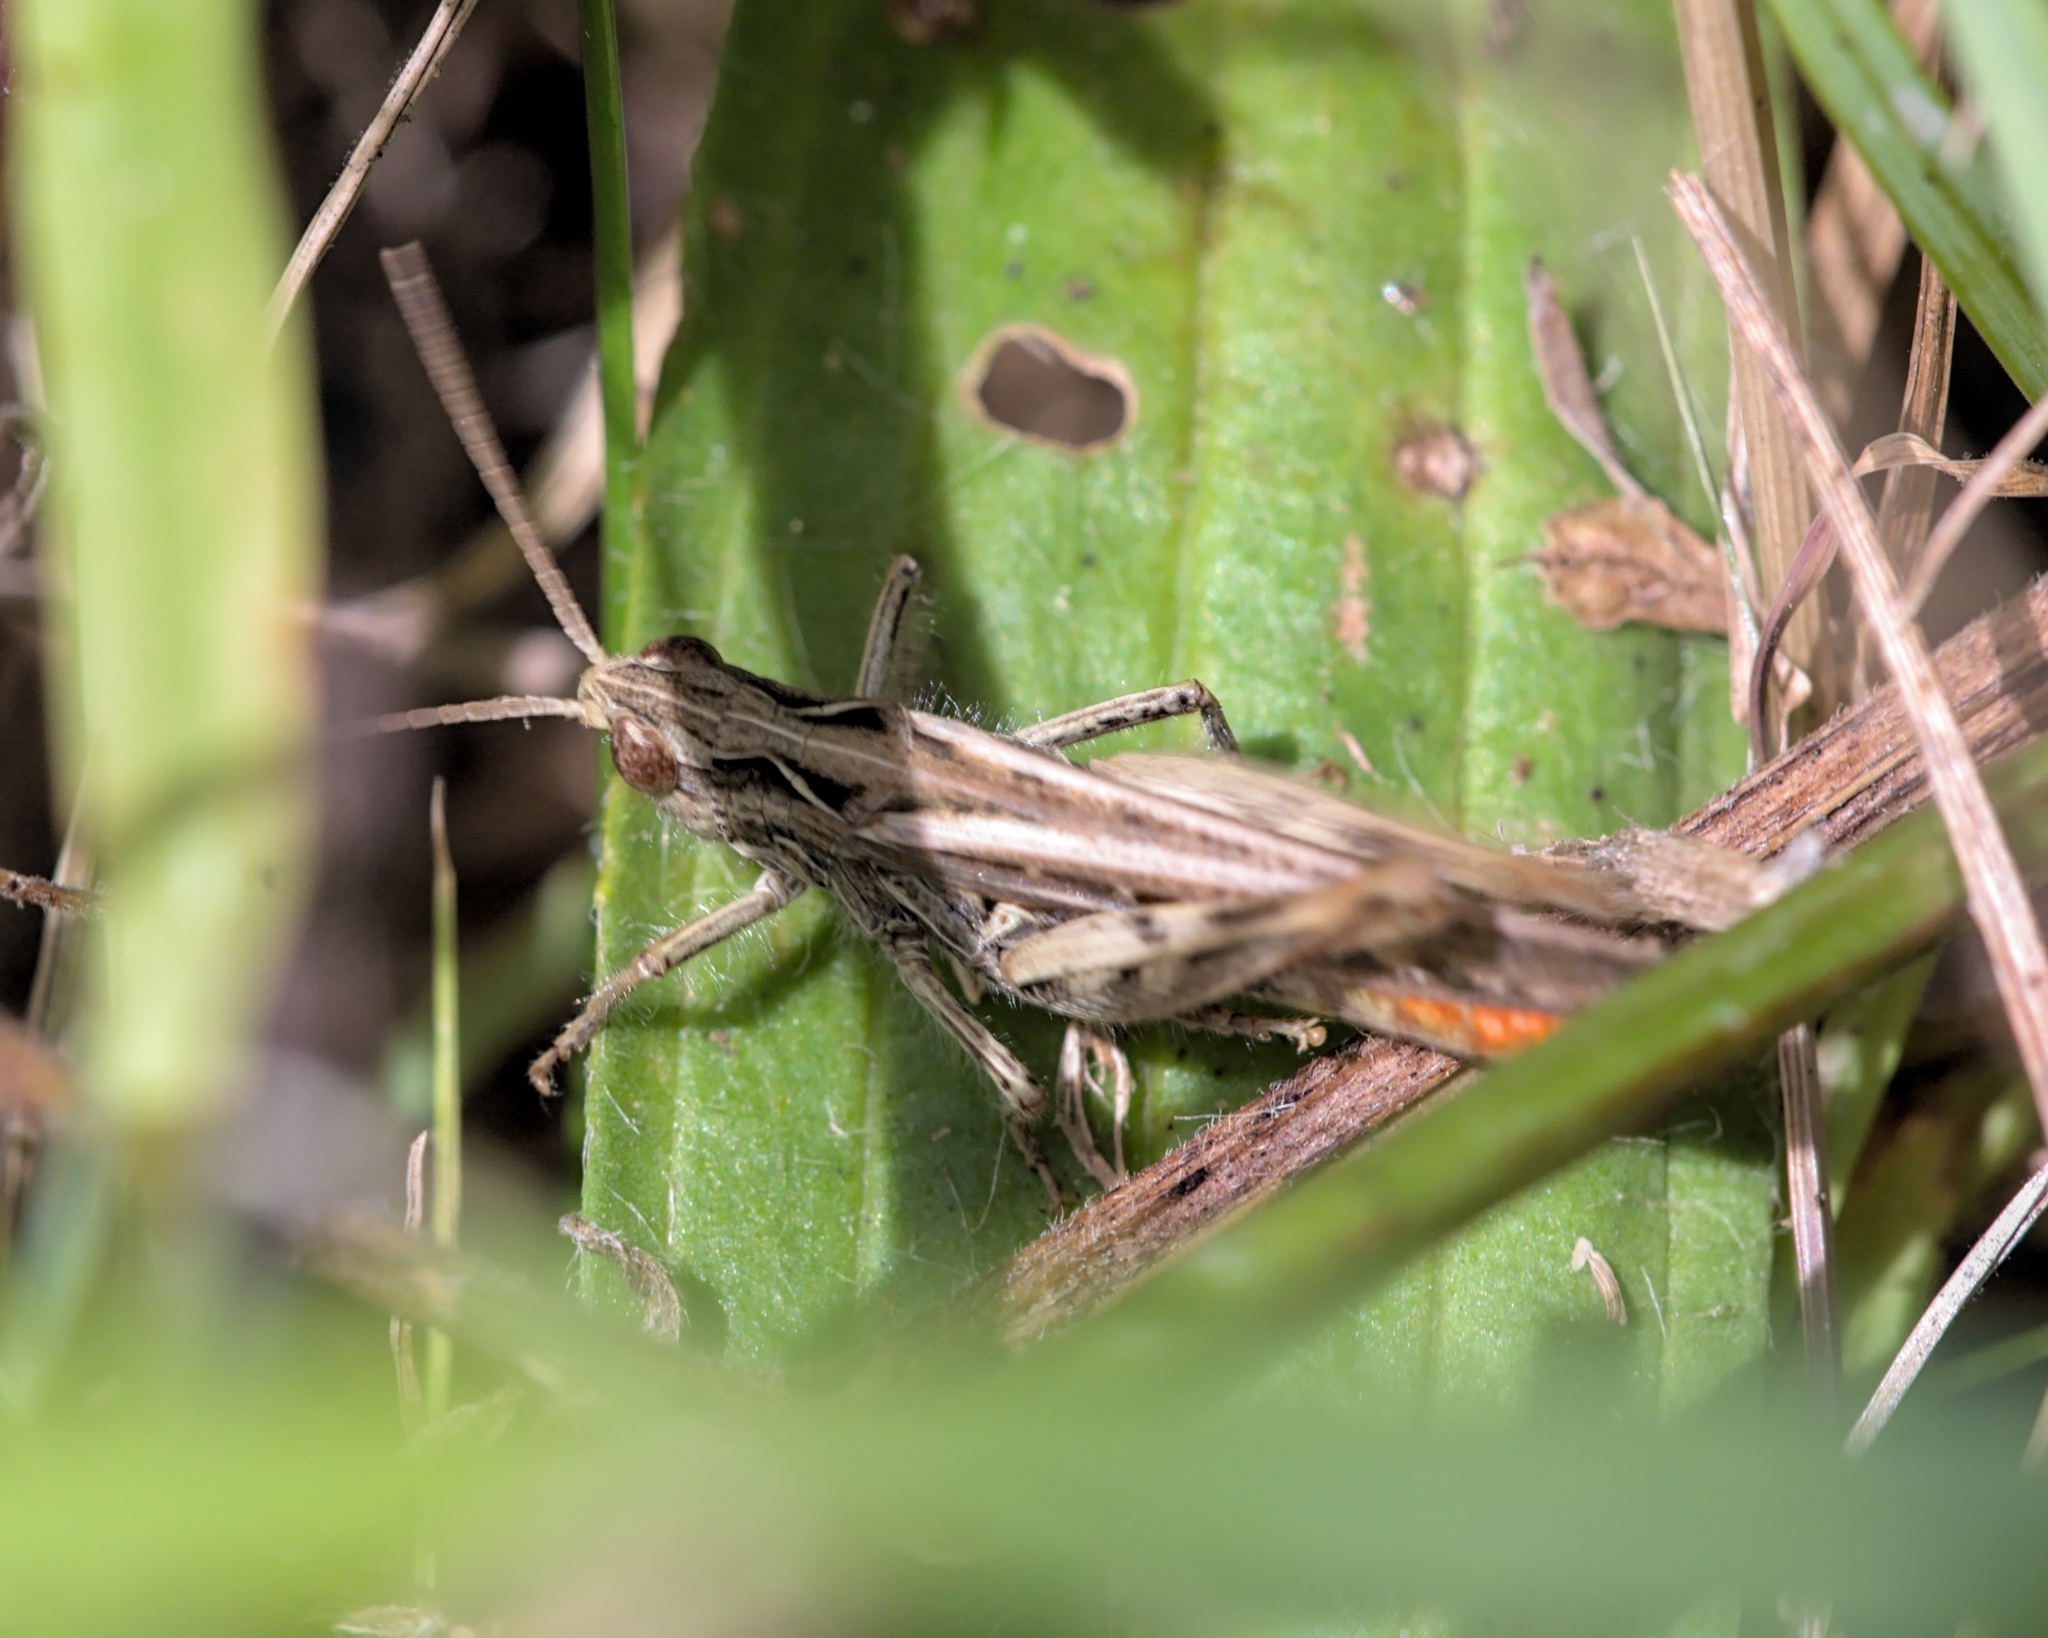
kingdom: Animalia
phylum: Arthropoda
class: Insecta
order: Orthoptera
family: Acrididae
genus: Chorthippus
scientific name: Chorthippus brunneus
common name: Field grasshopper
